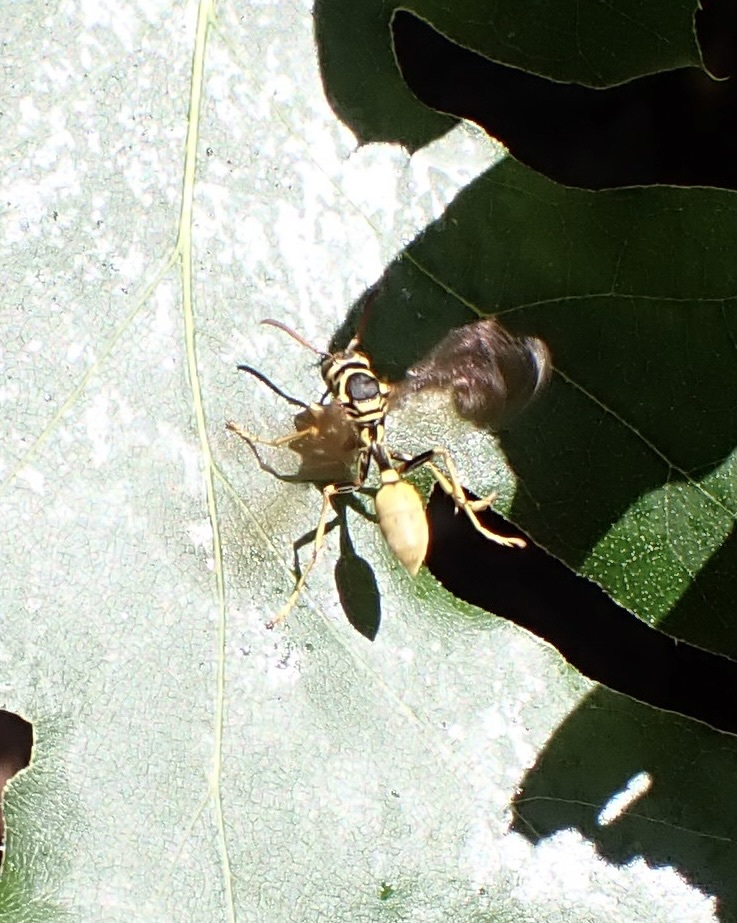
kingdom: Animalia
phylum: Arthropoda
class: Insecta
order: Hymenoptera
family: Vespidae
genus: Mischocyttarus
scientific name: Mischocyttarus flavitarsis
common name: Wasp
